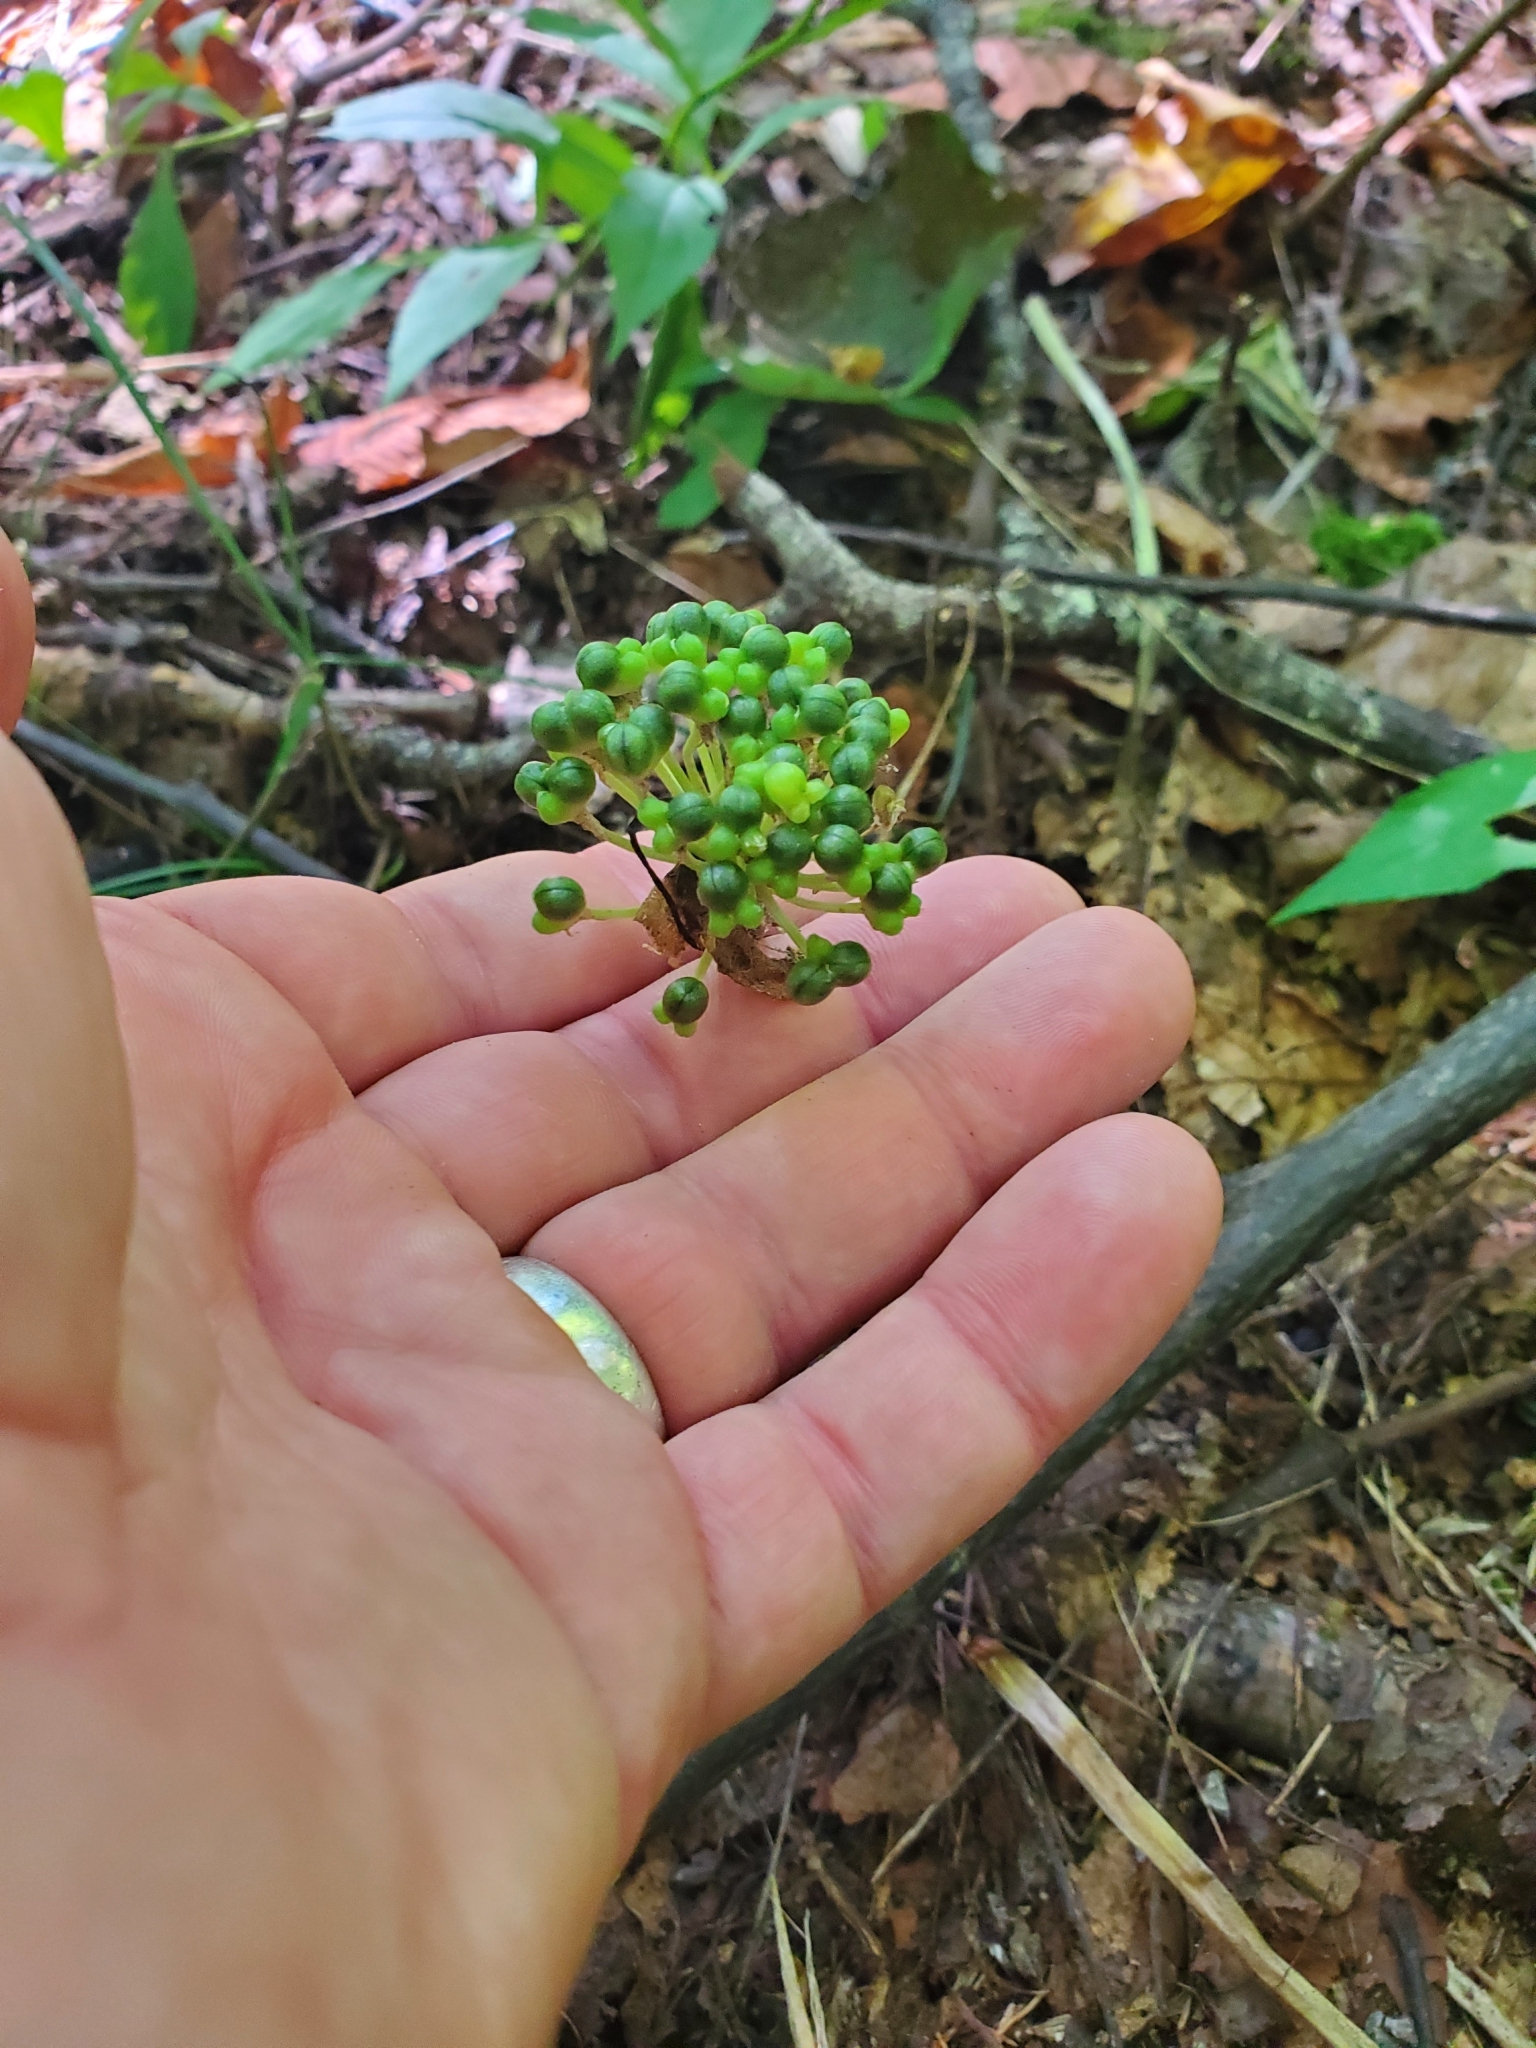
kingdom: Plantae
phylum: Tracheophyta
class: Liliopsida
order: Asparagales
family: Amaryllidaceae
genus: Allium
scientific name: Allium tricoccum
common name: Ramp
